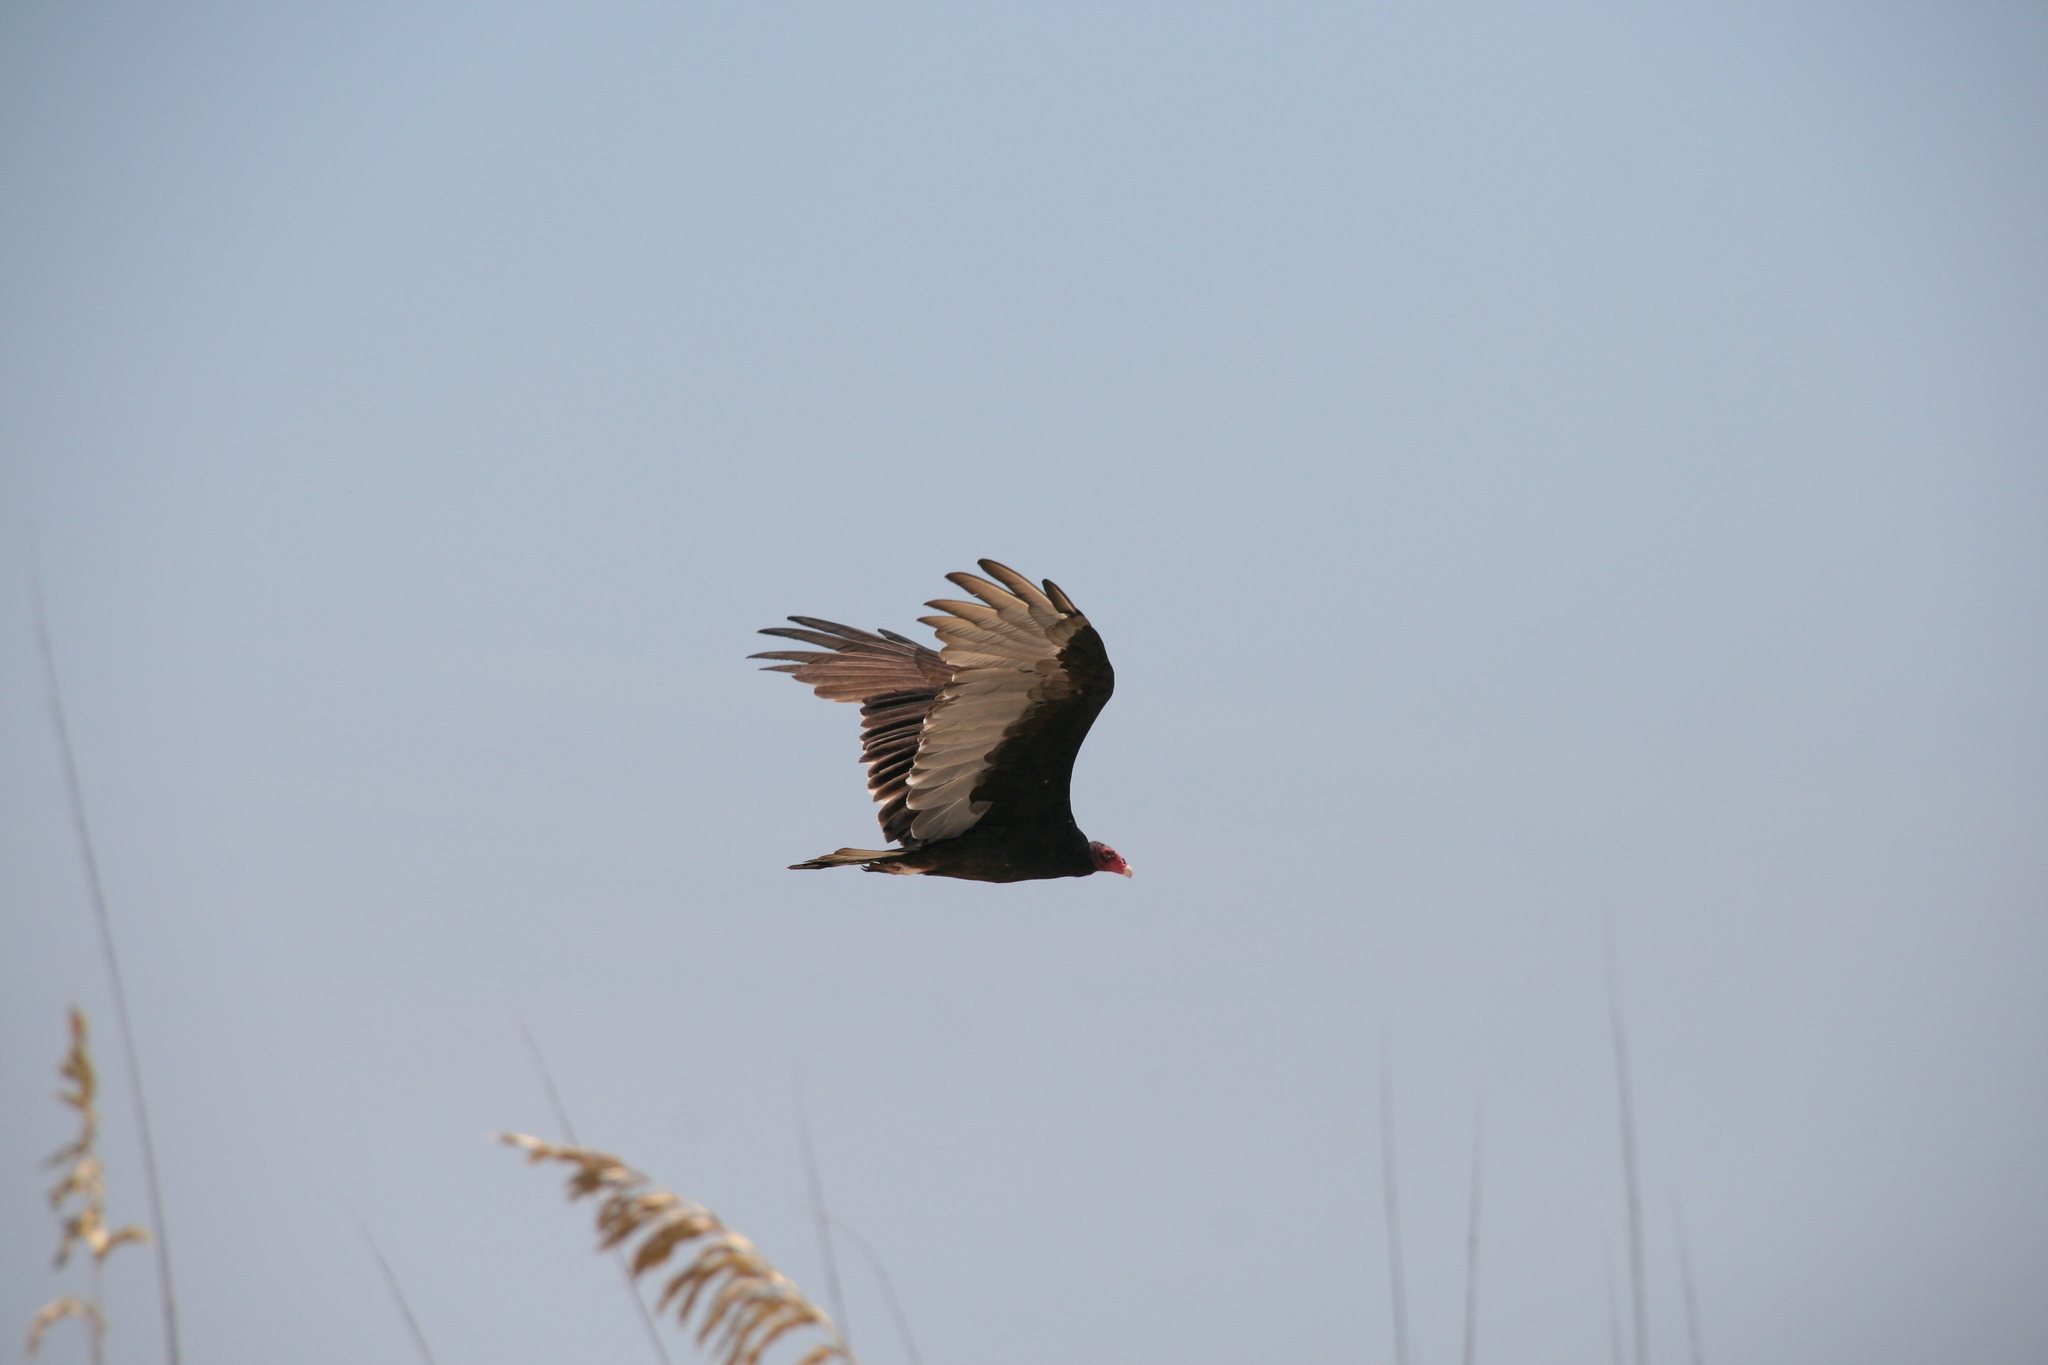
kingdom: Animalia
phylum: Chordata
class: Aves
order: Accipitriformes
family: Cathartidae
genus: Cathartes
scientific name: Cathartes aura
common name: Turkey vulture
